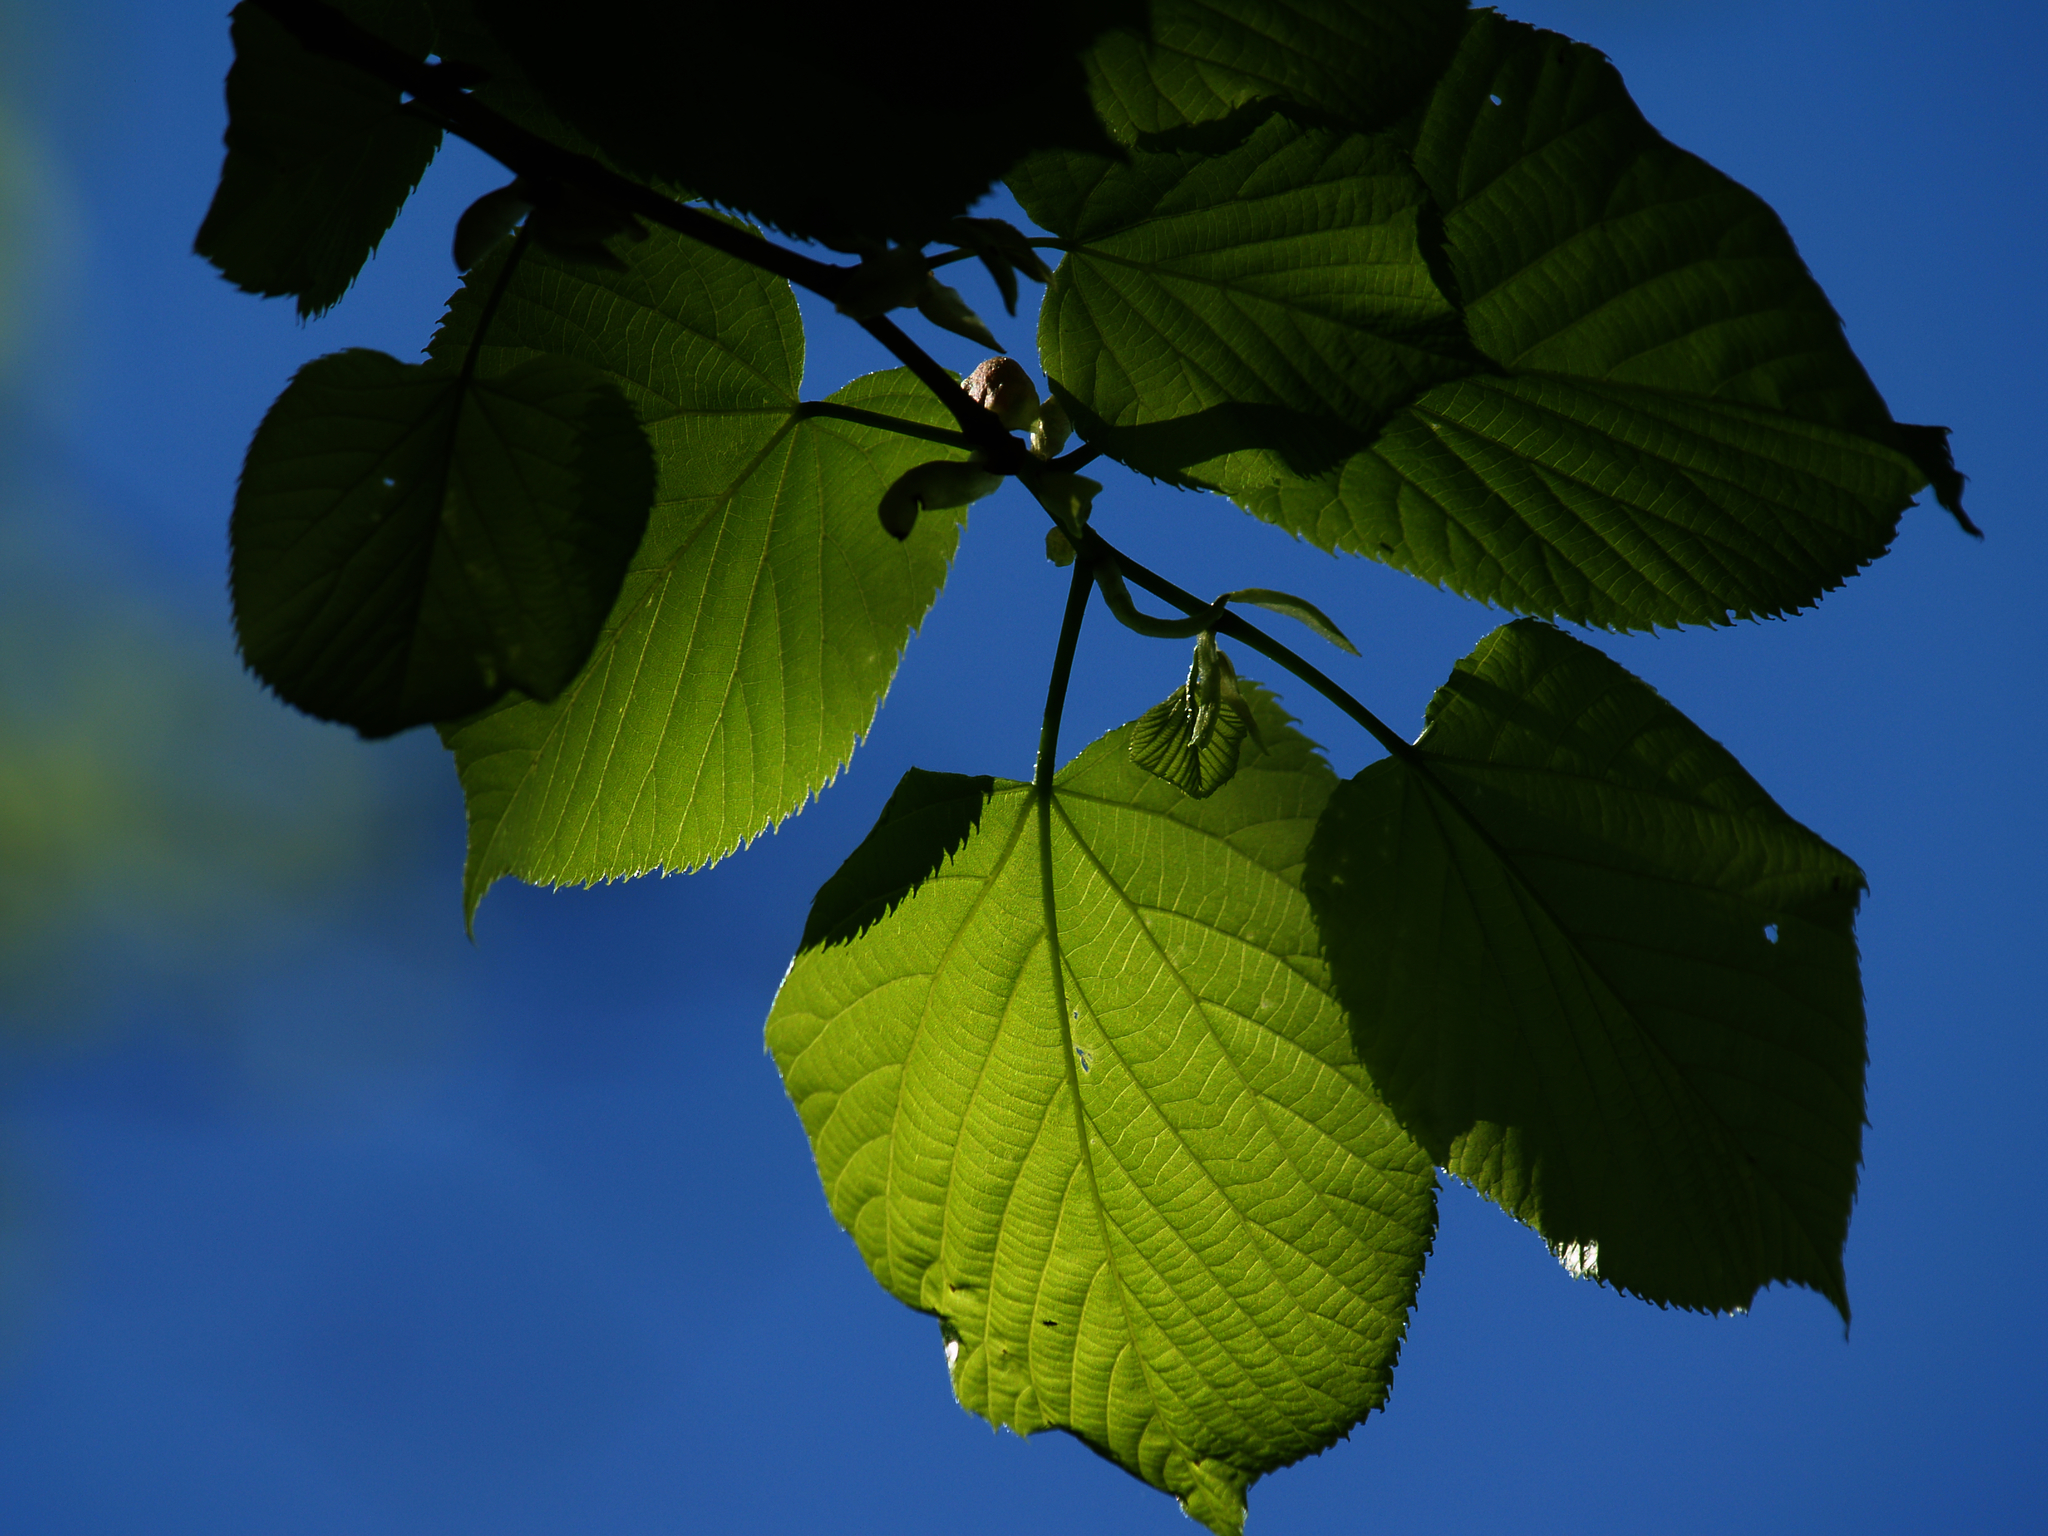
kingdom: Plantae
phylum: Tracheophyta
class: Magnoliopsida
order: Malvales
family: Malvaceae
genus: Tilia
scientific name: Tilia americana
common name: Basswood
